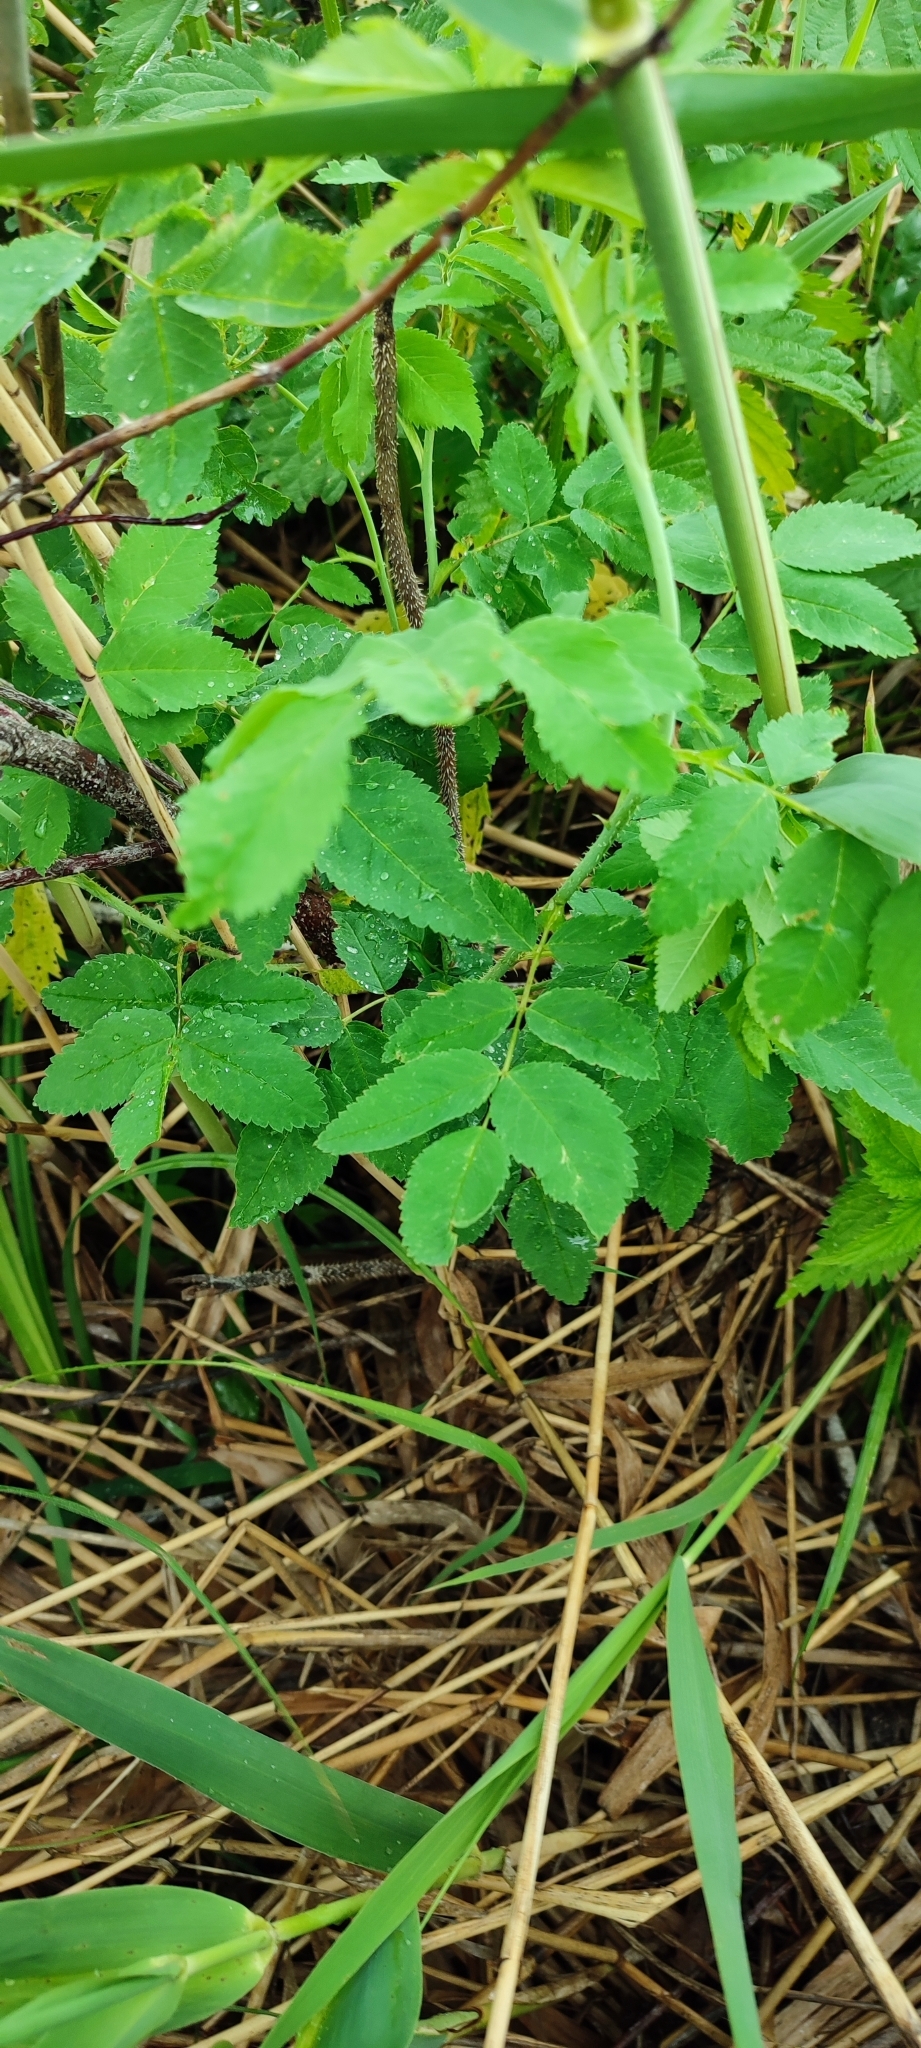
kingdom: Plantae
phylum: Tracheophyta
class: Magnoliopsida
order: Rosales
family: Rosaceae
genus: Rosa
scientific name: Rosa majalis
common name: Cinnamon rose
